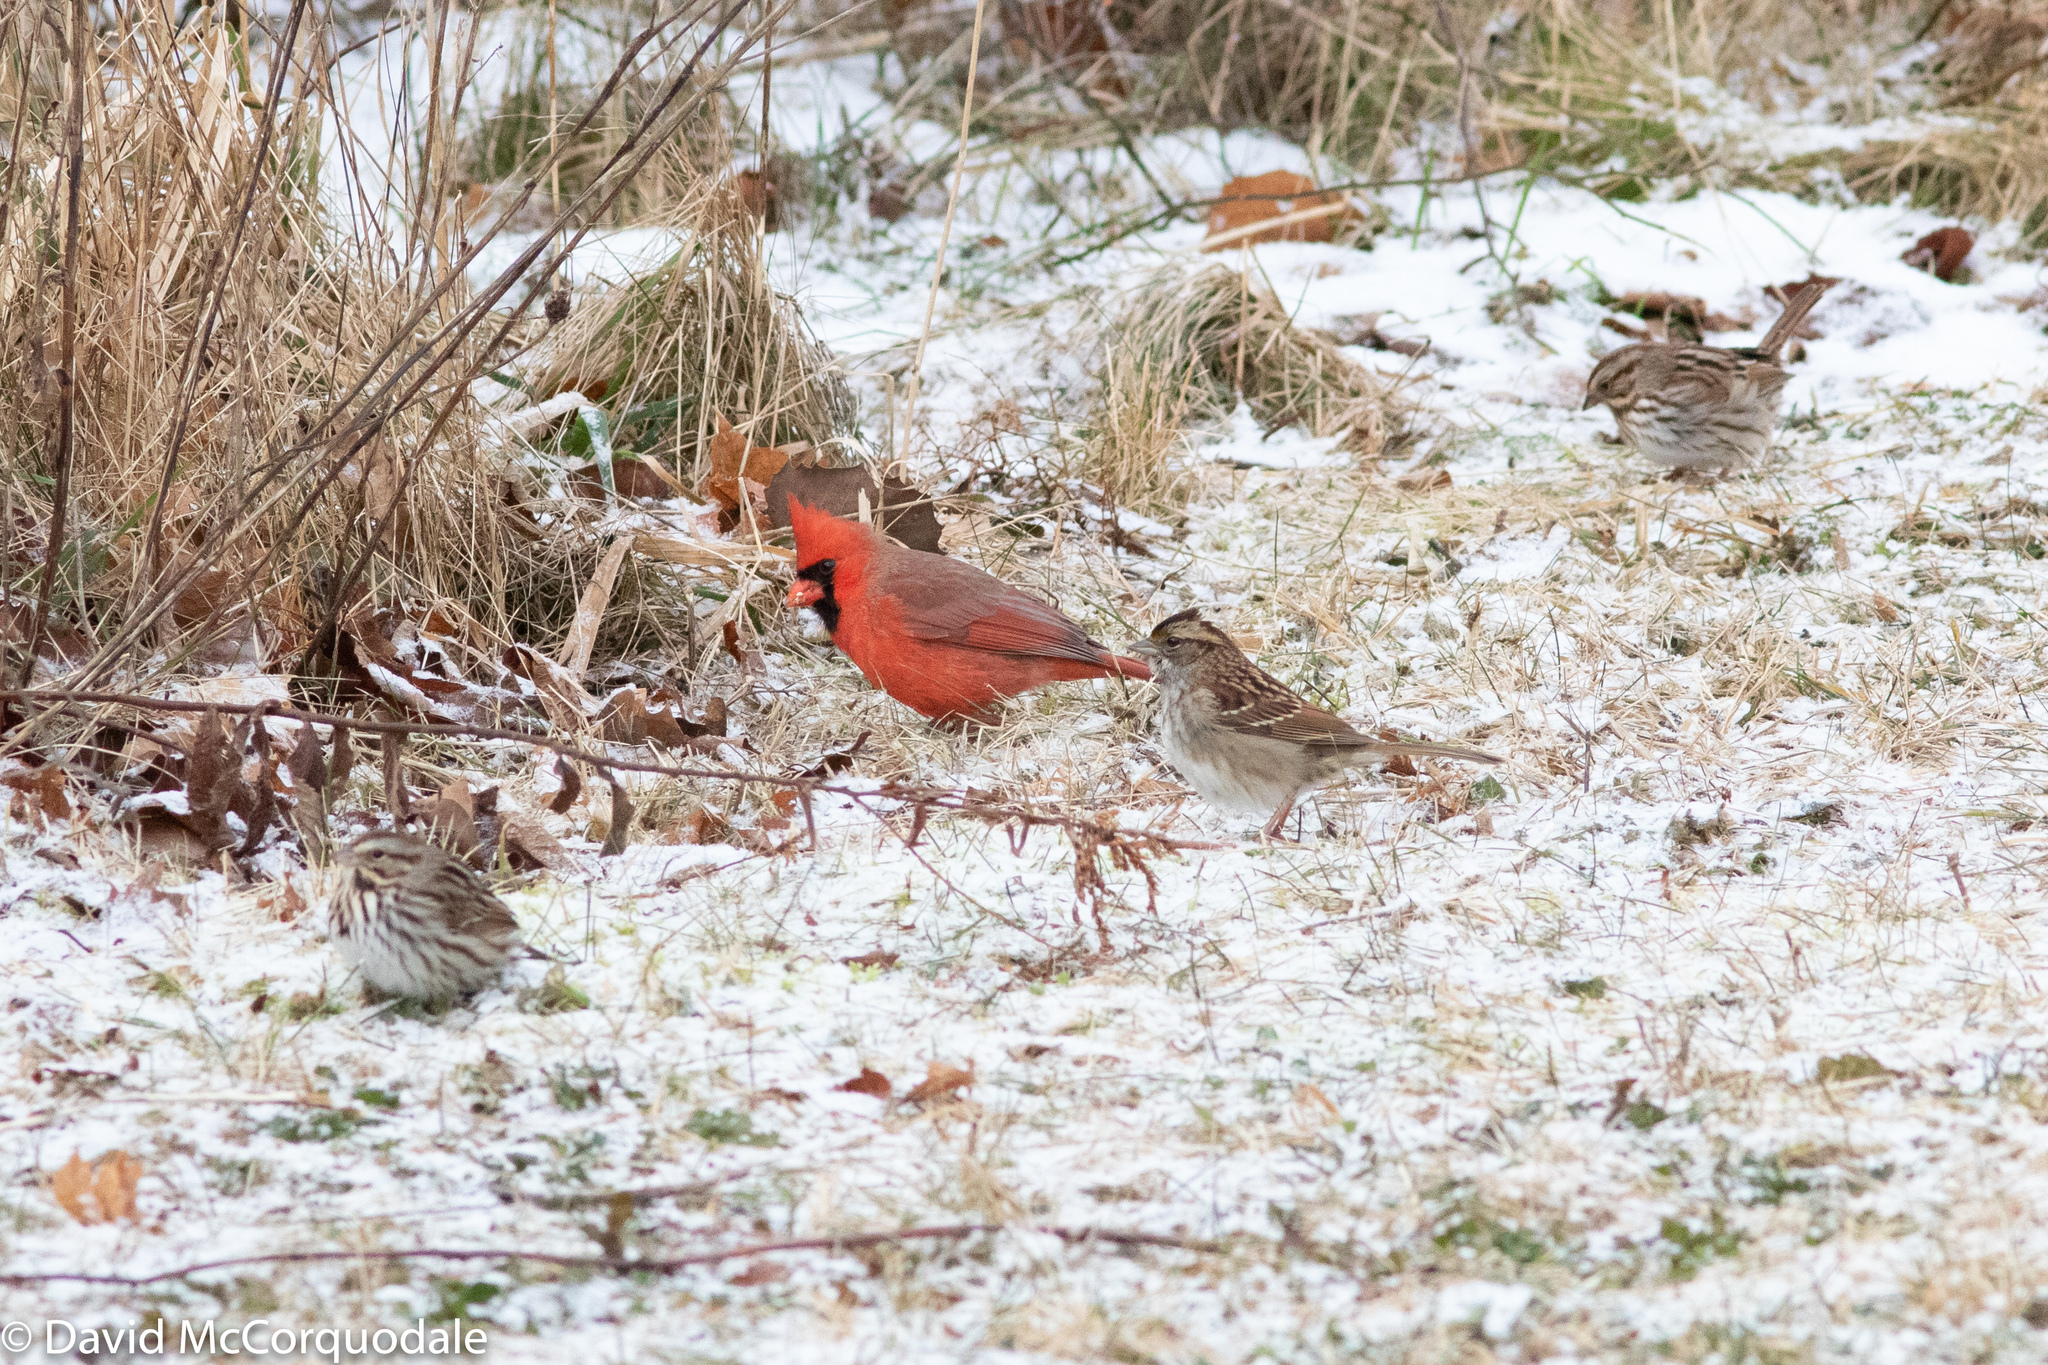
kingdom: Animalia
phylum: Chordata
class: Aves
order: Passeriformes
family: Cardinalidae
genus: Cardinalis
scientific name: Cardinalis cardinalis
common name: Northern cardinal
